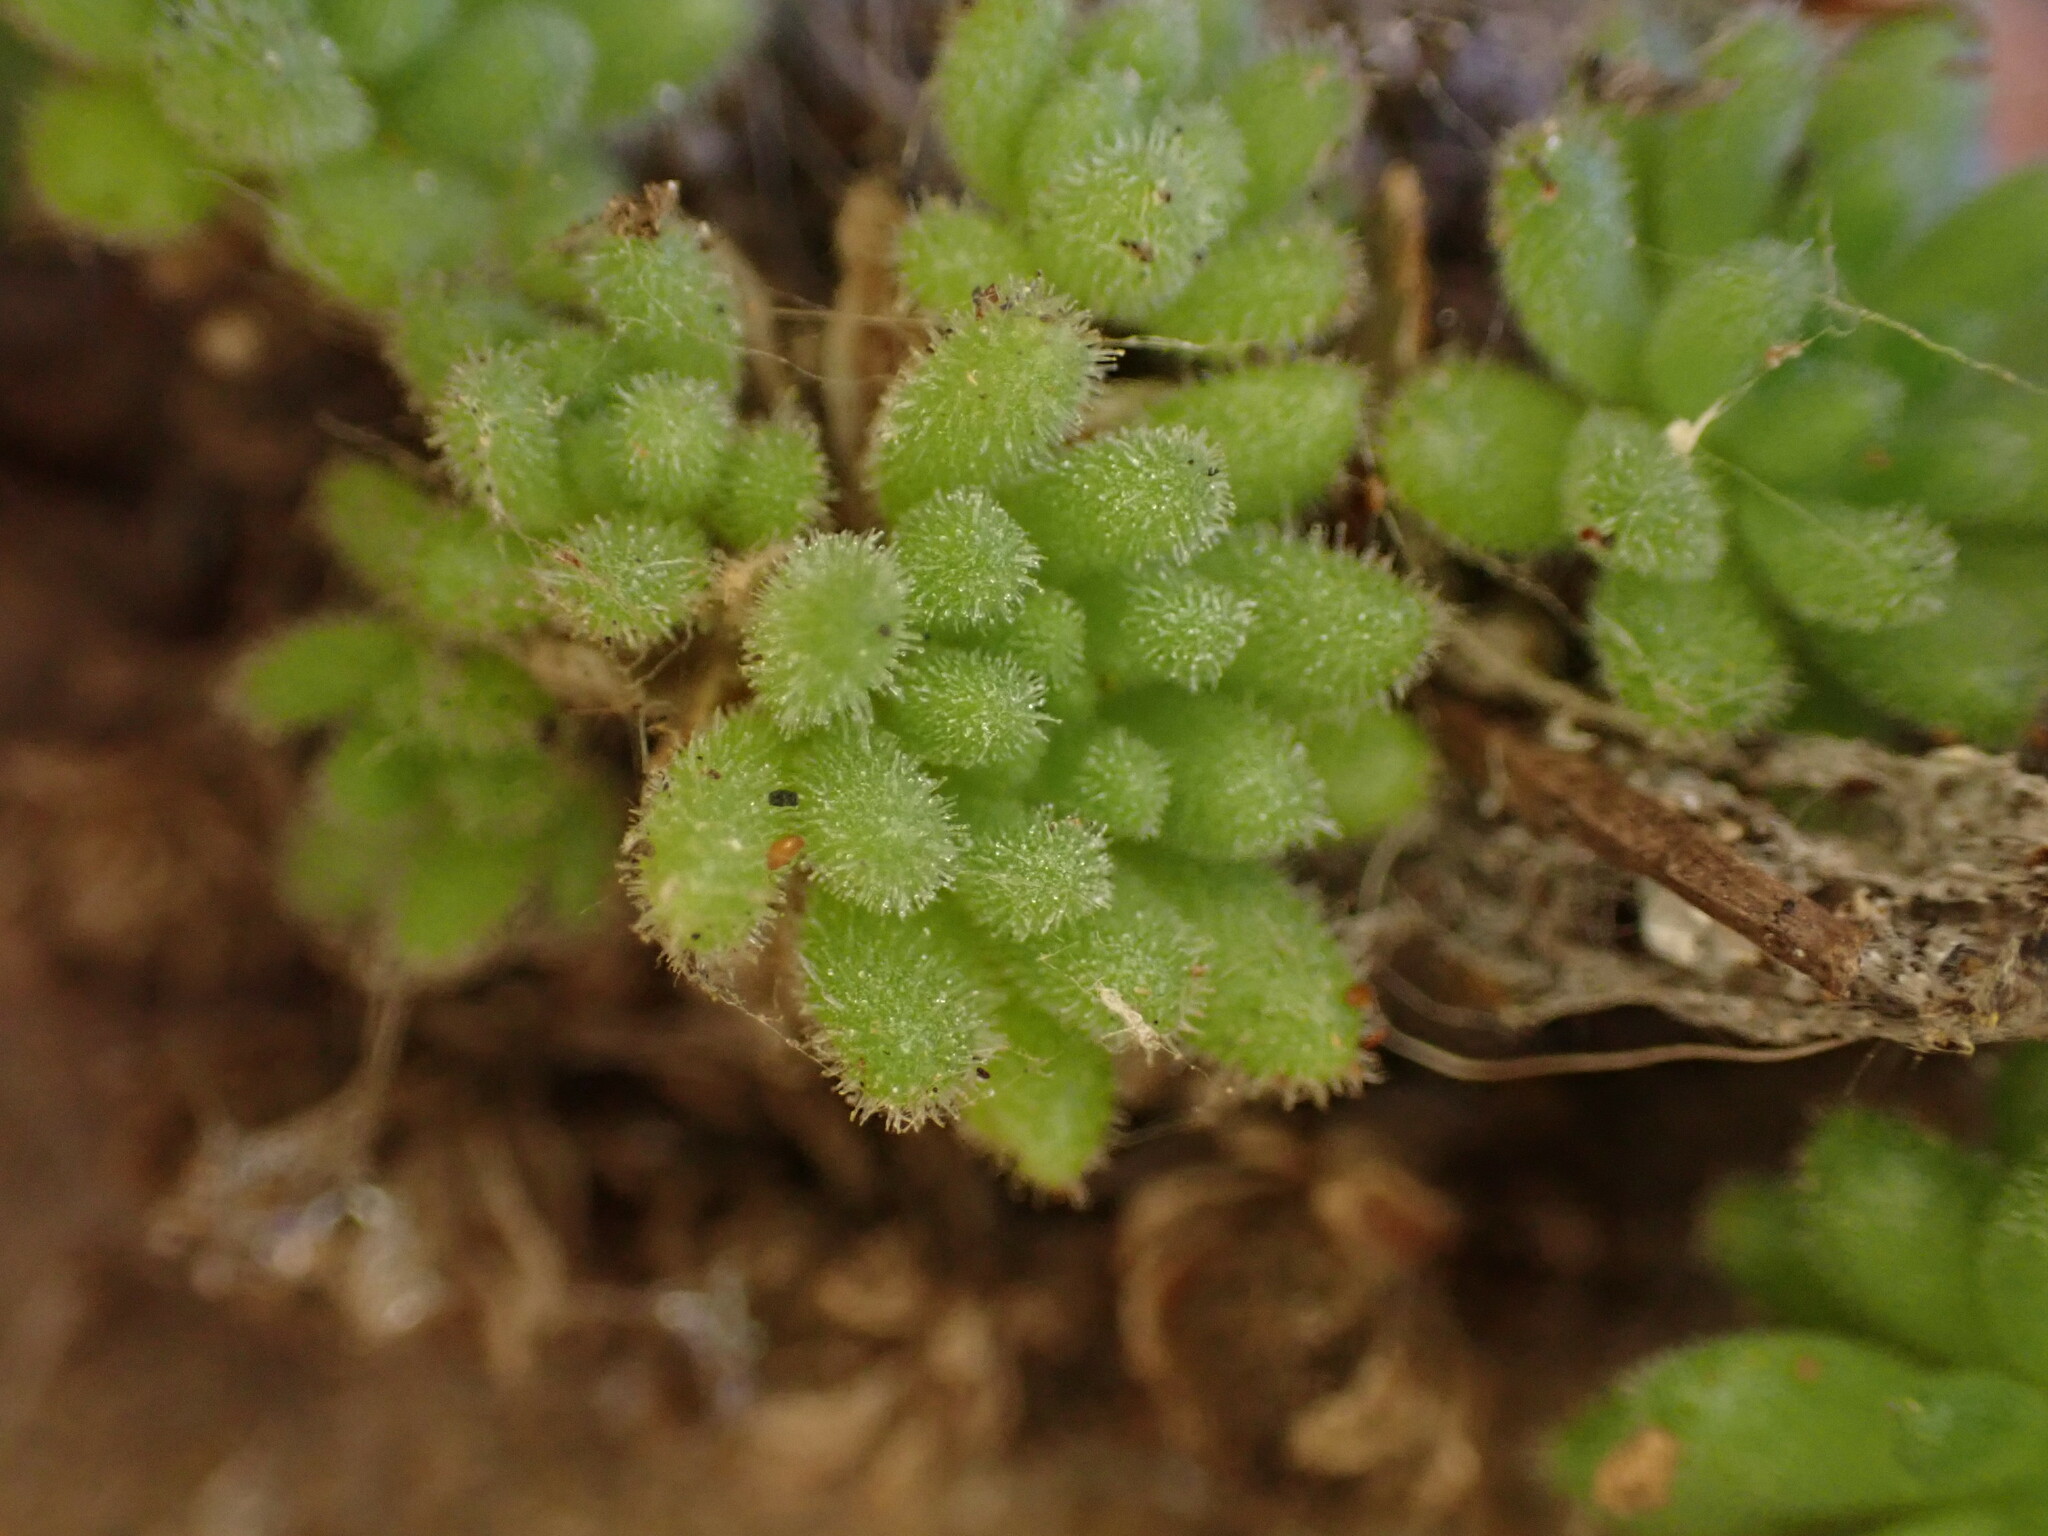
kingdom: Plantae
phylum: Tracheophyta
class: Magnoliopsida
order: Saxifragales
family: Crassulaceae
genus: Sedum
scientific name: Sedum hirsutum
